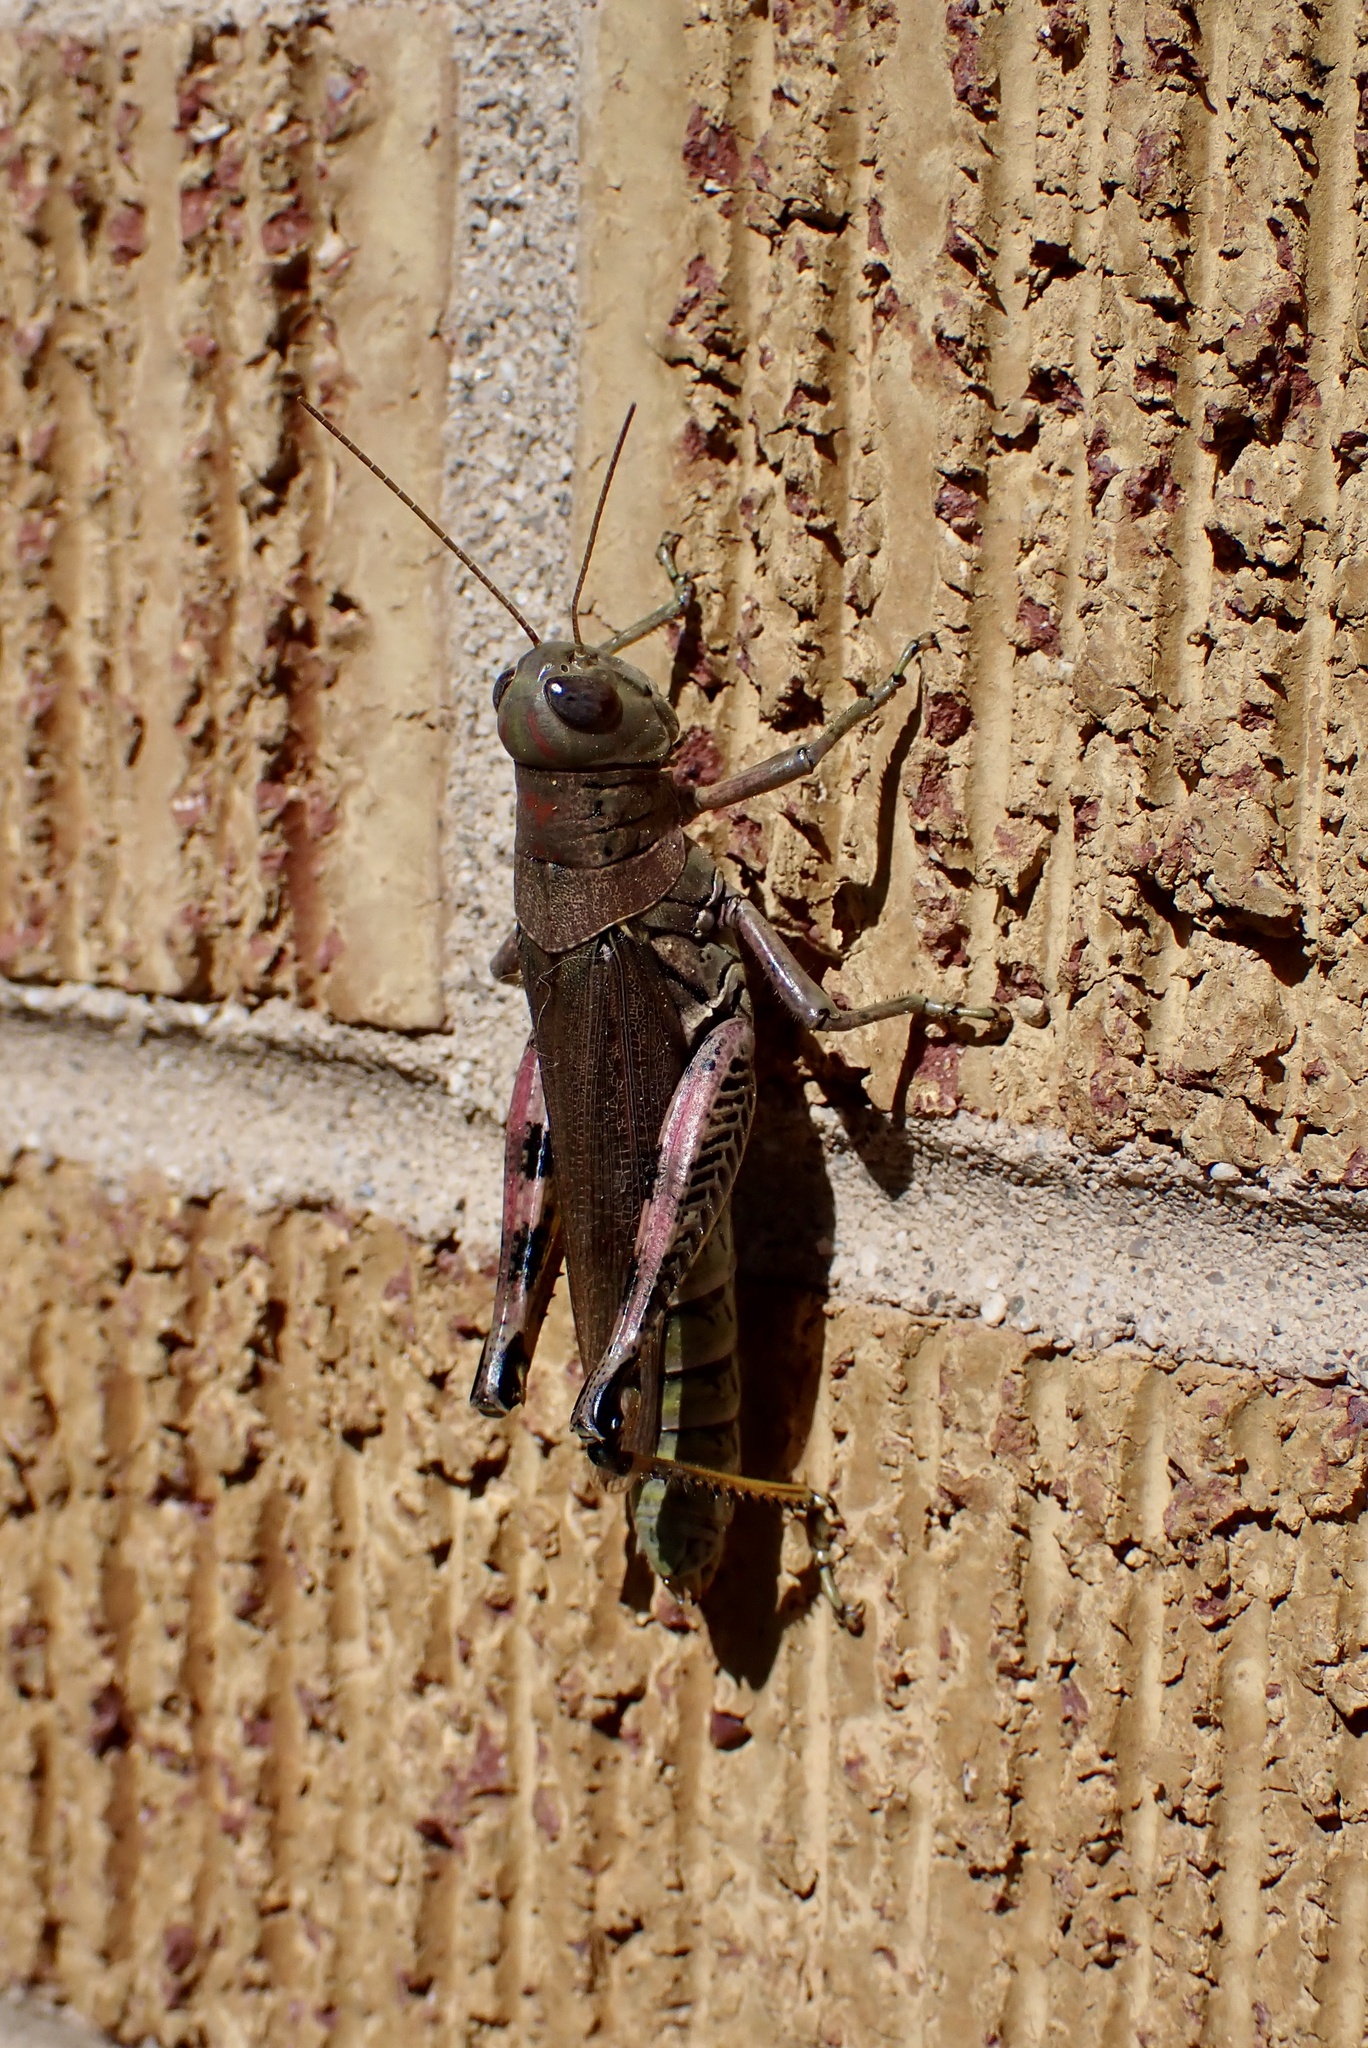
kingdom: Animalia
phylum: Arthropoda
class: Insecta
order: Orthoptera
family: Acrididae
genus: Melanoplus
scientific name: Melanoplus differentialis
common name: Differential grasshopper
